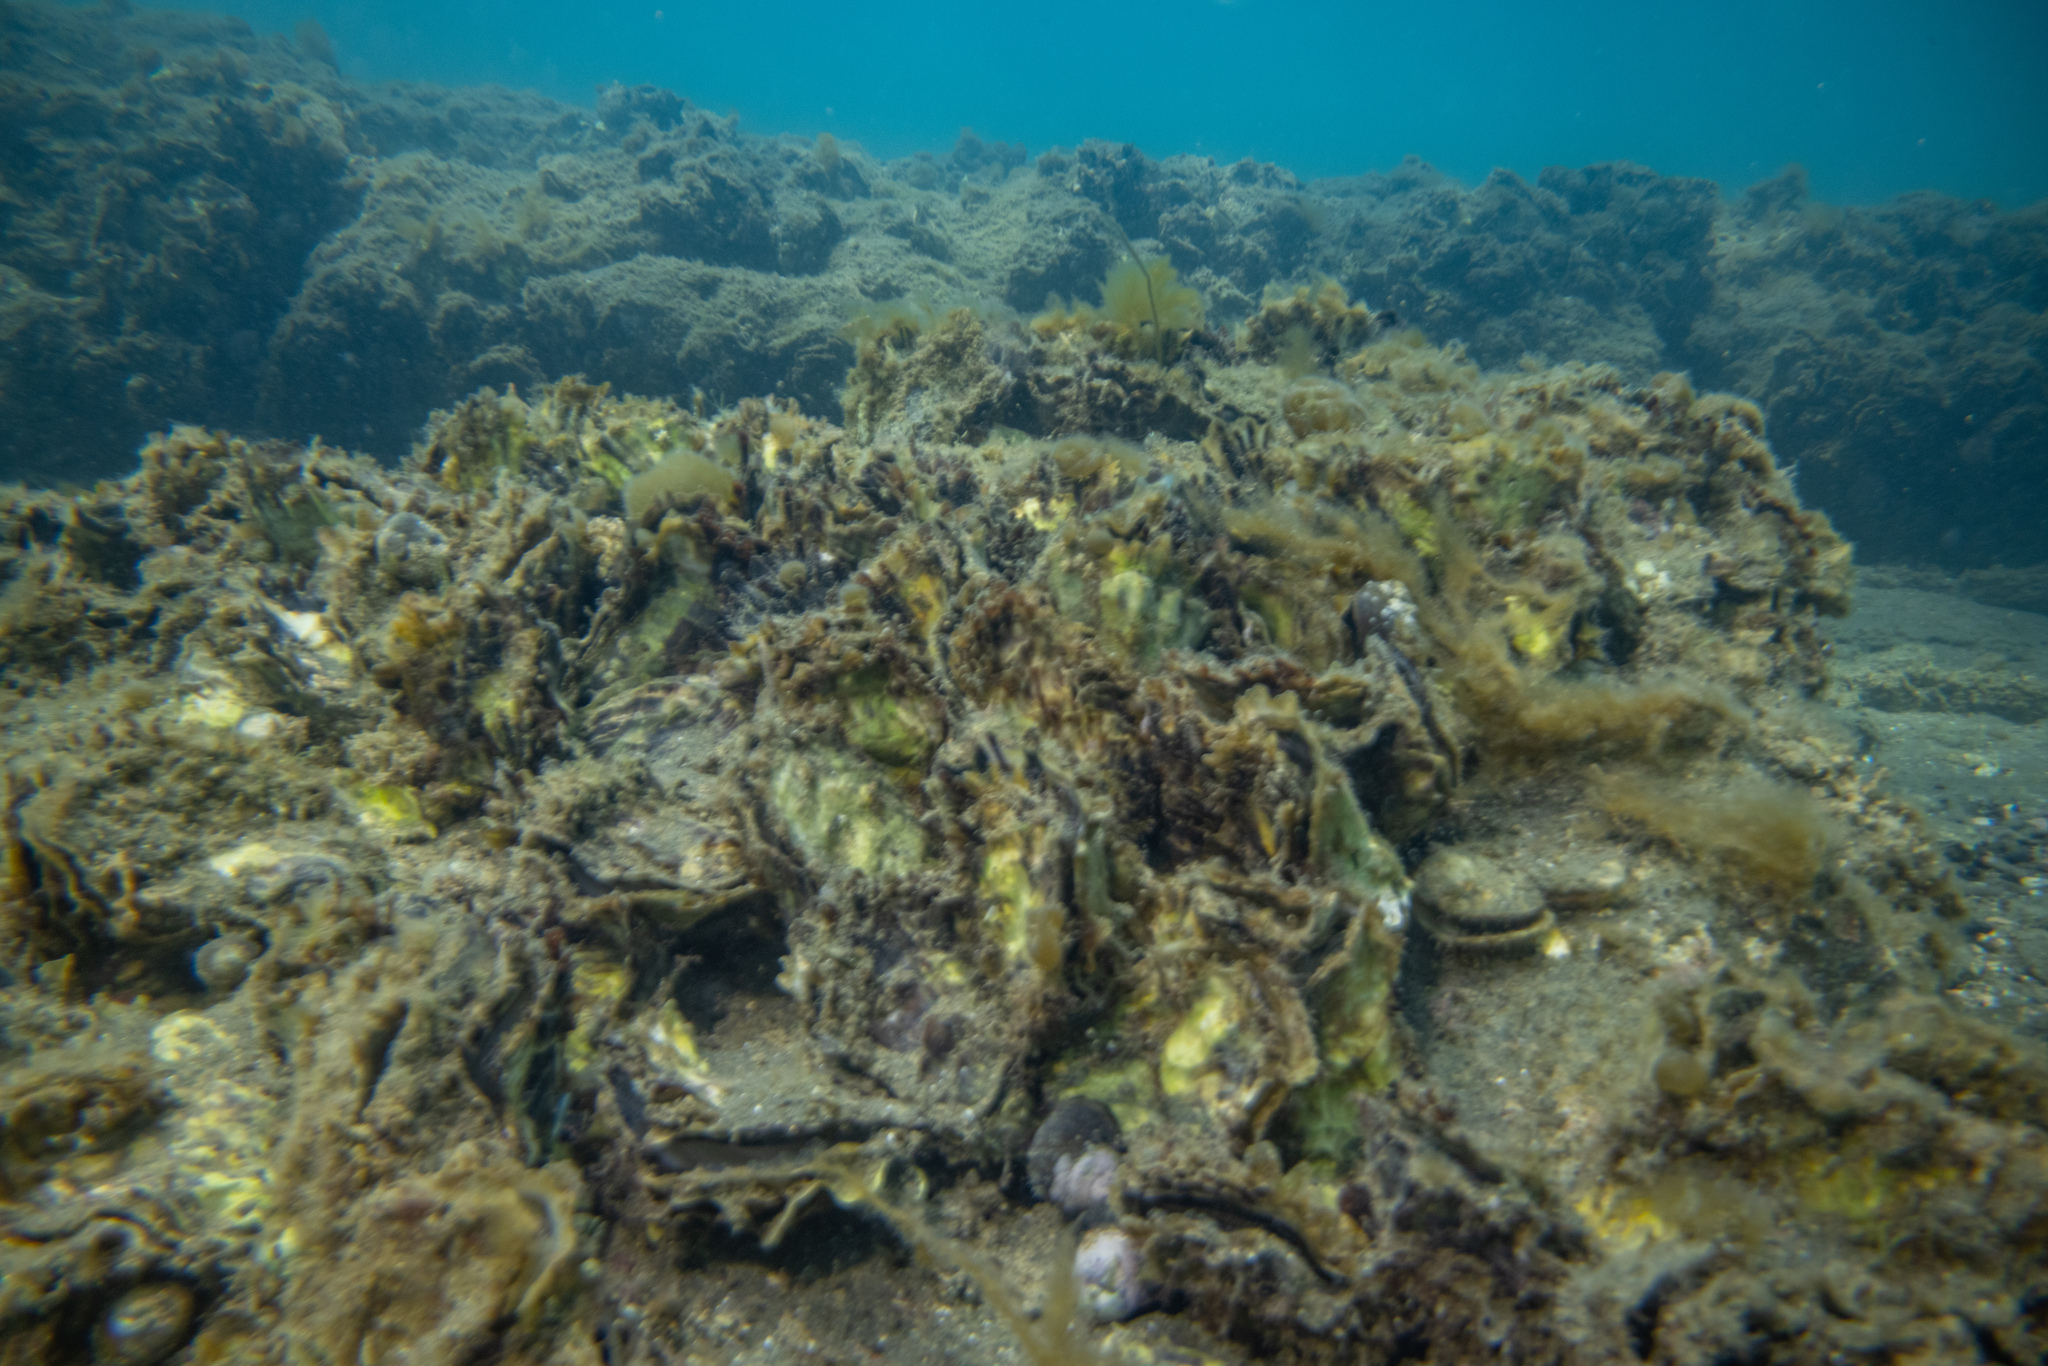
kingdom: Animalia
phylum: Mollusca
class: Bivalvia
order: Ostreida
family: Ostreidae
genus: Magallana
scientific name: Magallana gigas
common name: Pacific oyster
